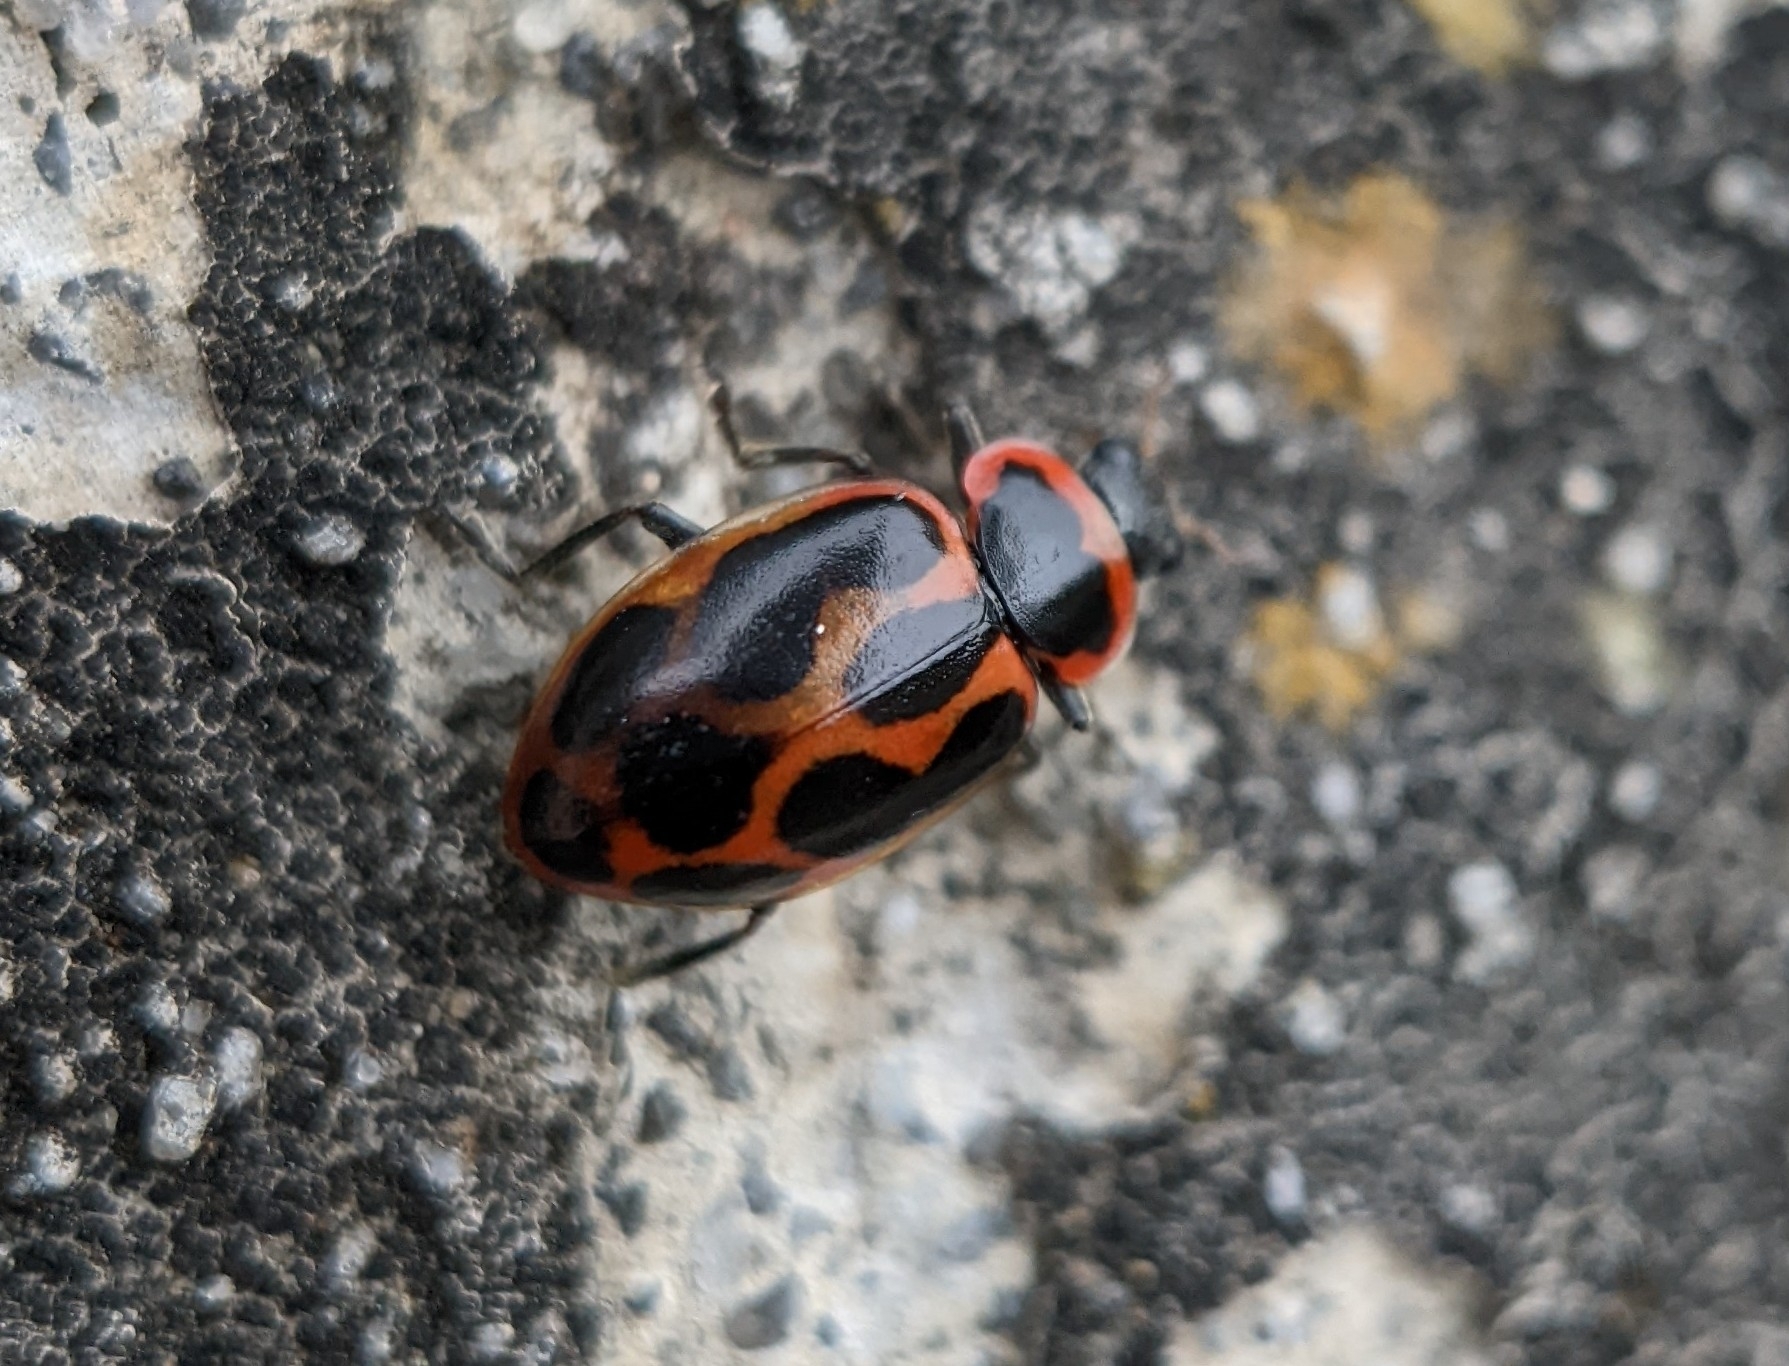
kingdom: Animalia
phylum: Arthropoda
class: Insecta
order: Coleoptera
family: Coccinellidae
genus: Naemia
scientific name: Naemia seriata
